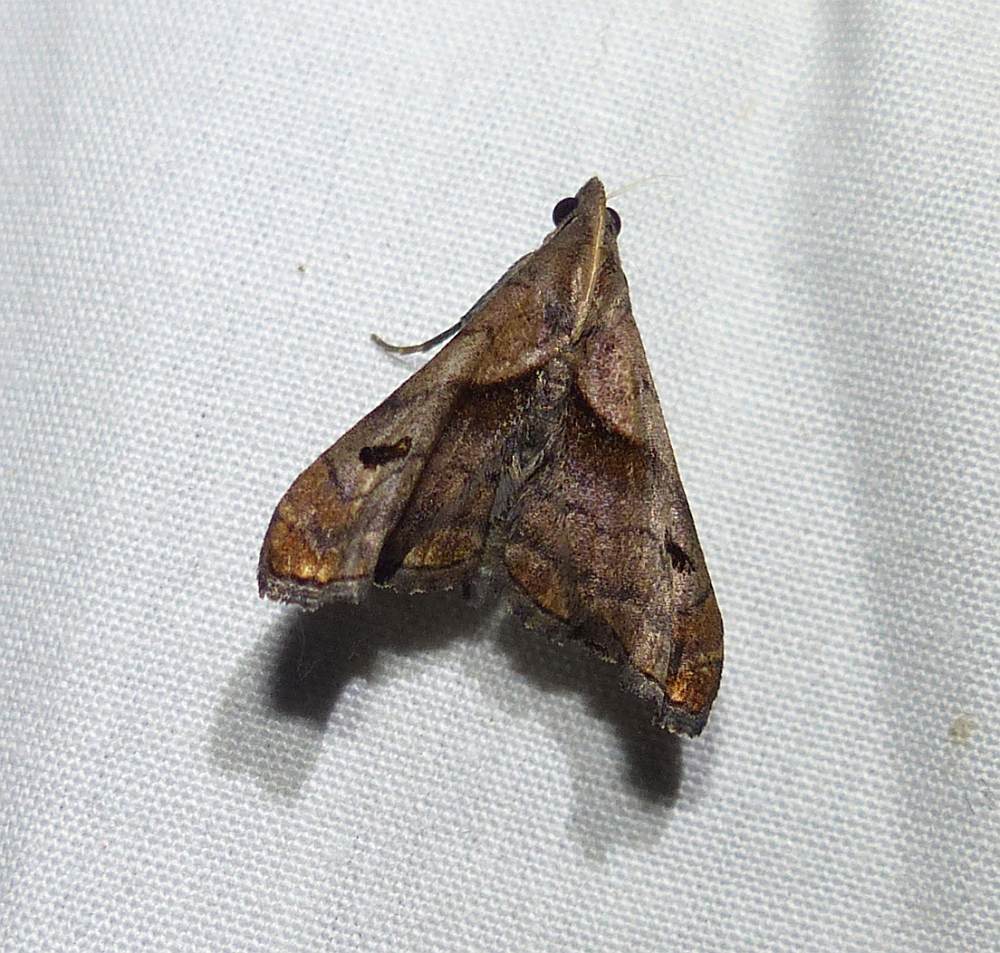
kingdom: Animalia
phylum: Arthropoda
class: Insecta
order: Lepidoptera
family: Erebidae
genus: Palthis
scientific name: Palthis angulalis
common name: Dark-spotted palthis moth
